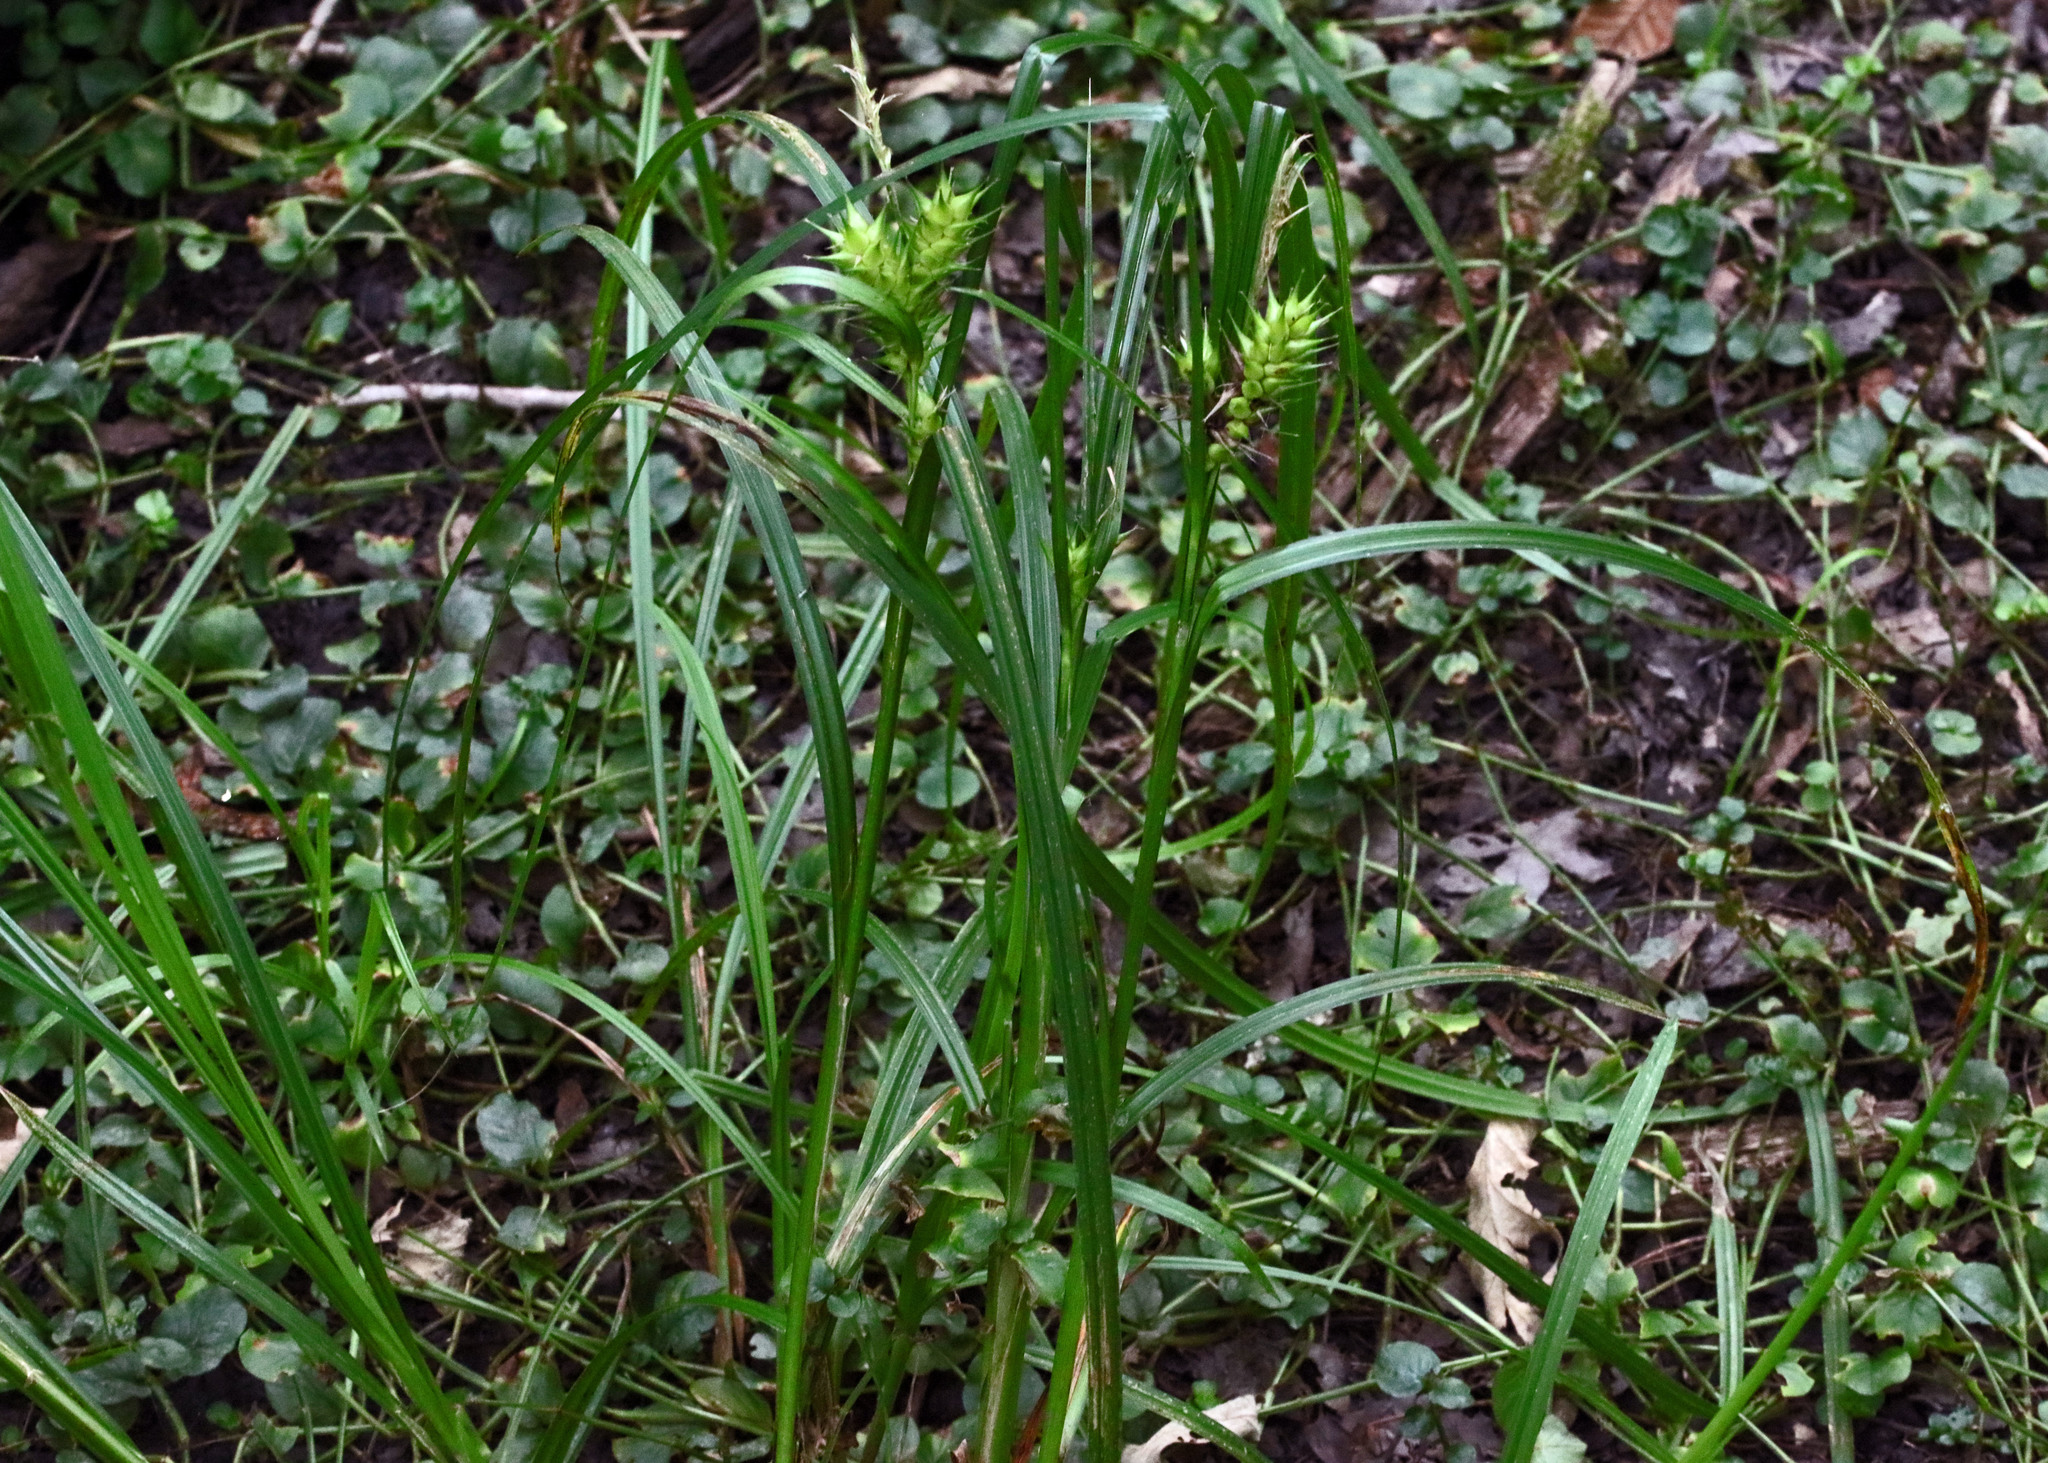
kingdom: Plantae
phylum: Tracheophyta
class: Liliopsida
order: Poales
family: Cyperaceae
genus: Carex
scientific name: Carex lupulina
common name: Hop sedge
